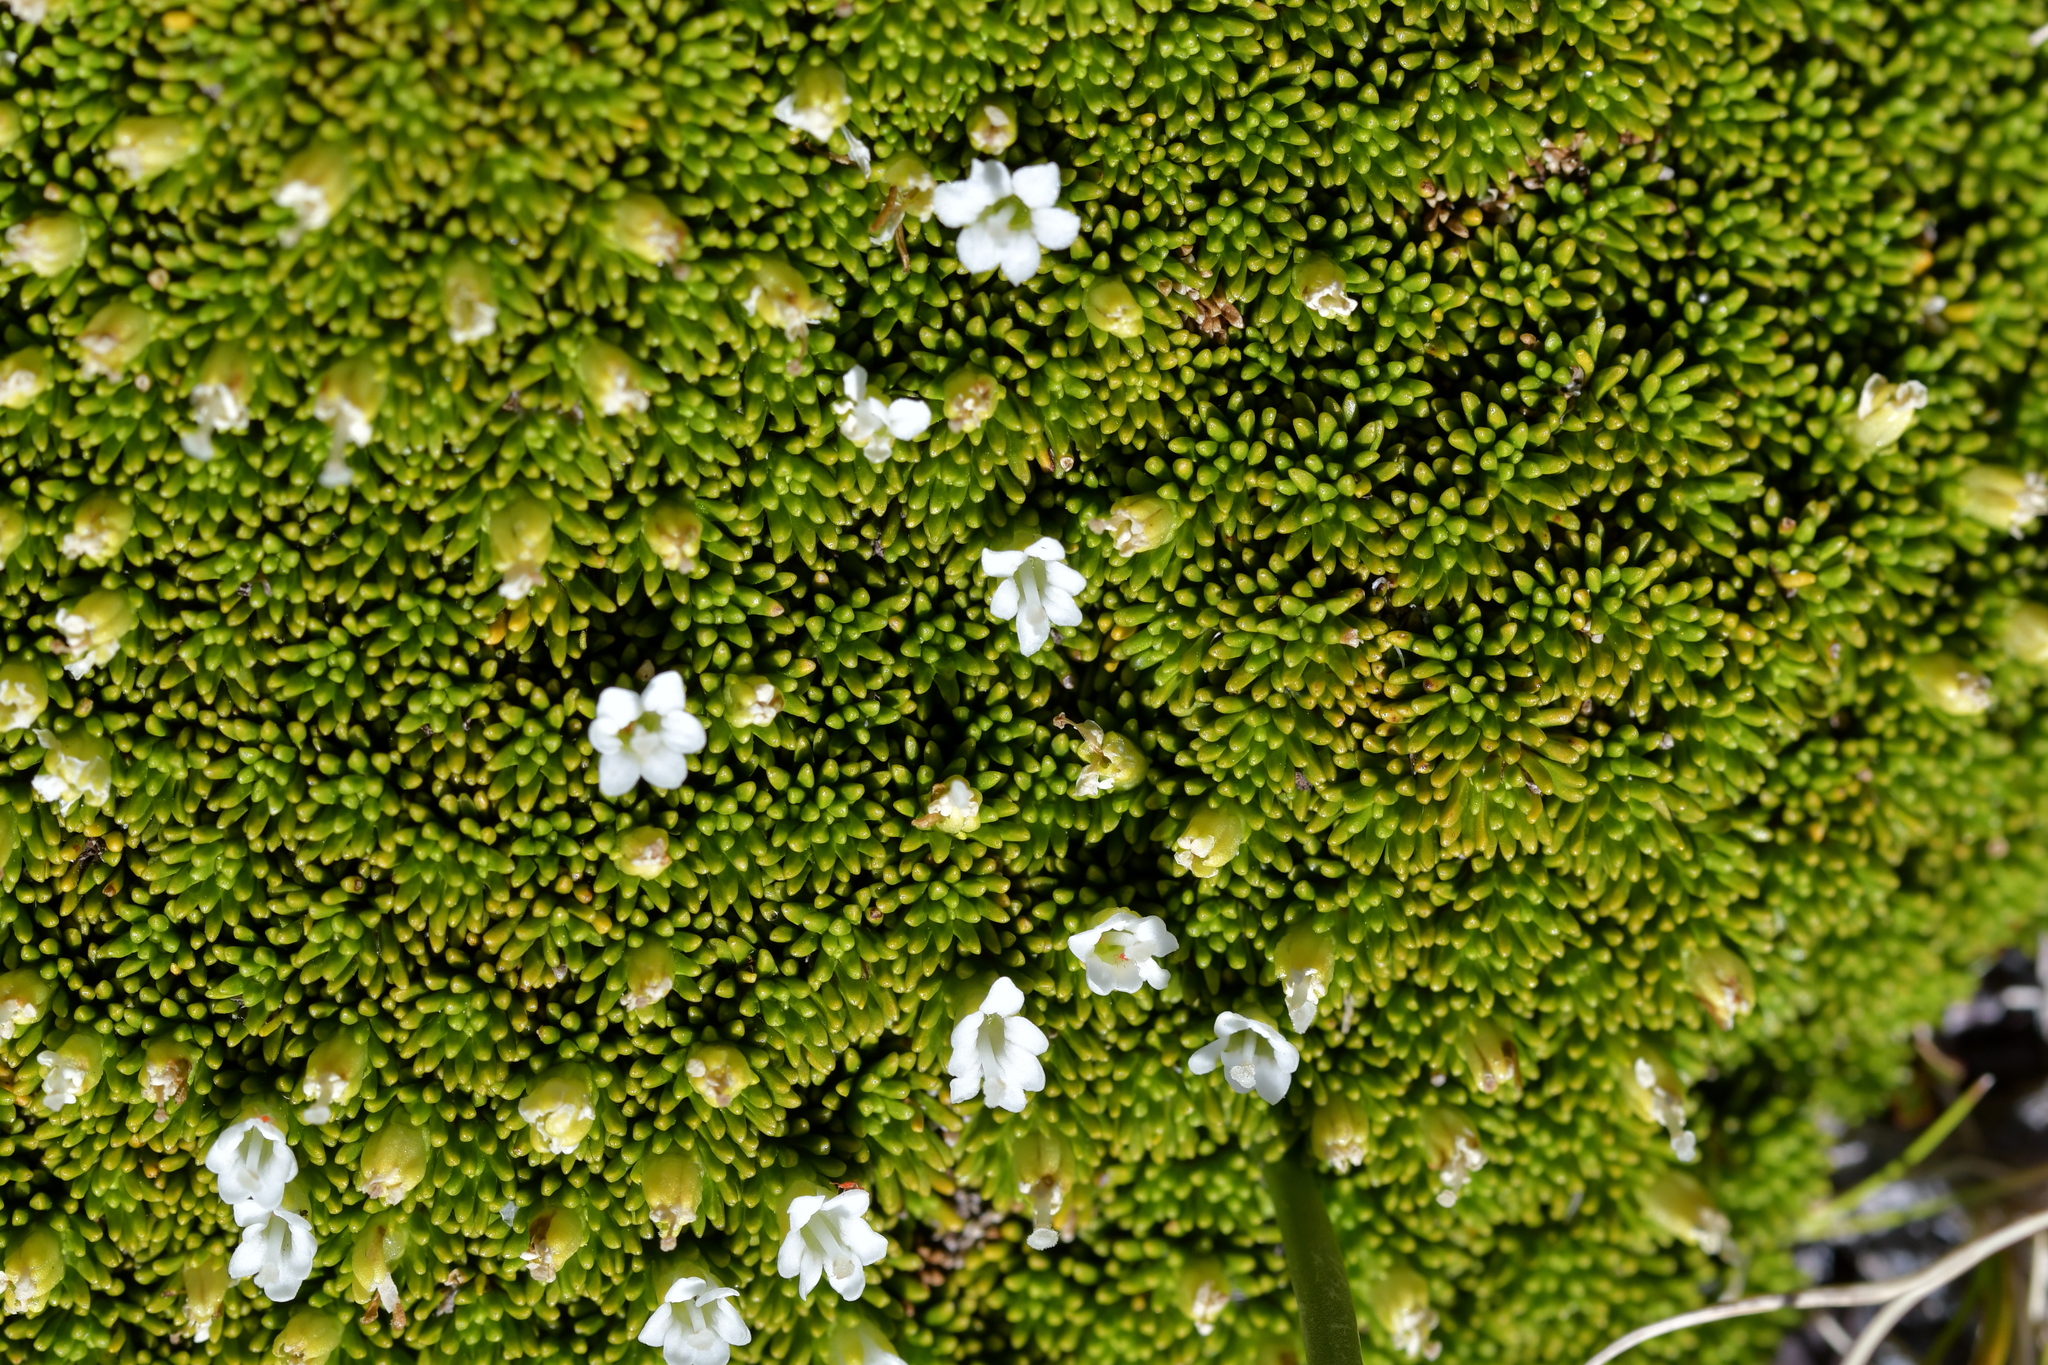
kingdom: Plantae
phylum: Tracheophyta
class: Magnoliopsida
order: Asterales
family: Stylidiaceae
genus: Phyllachne
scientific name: Phyllachne colensoi
